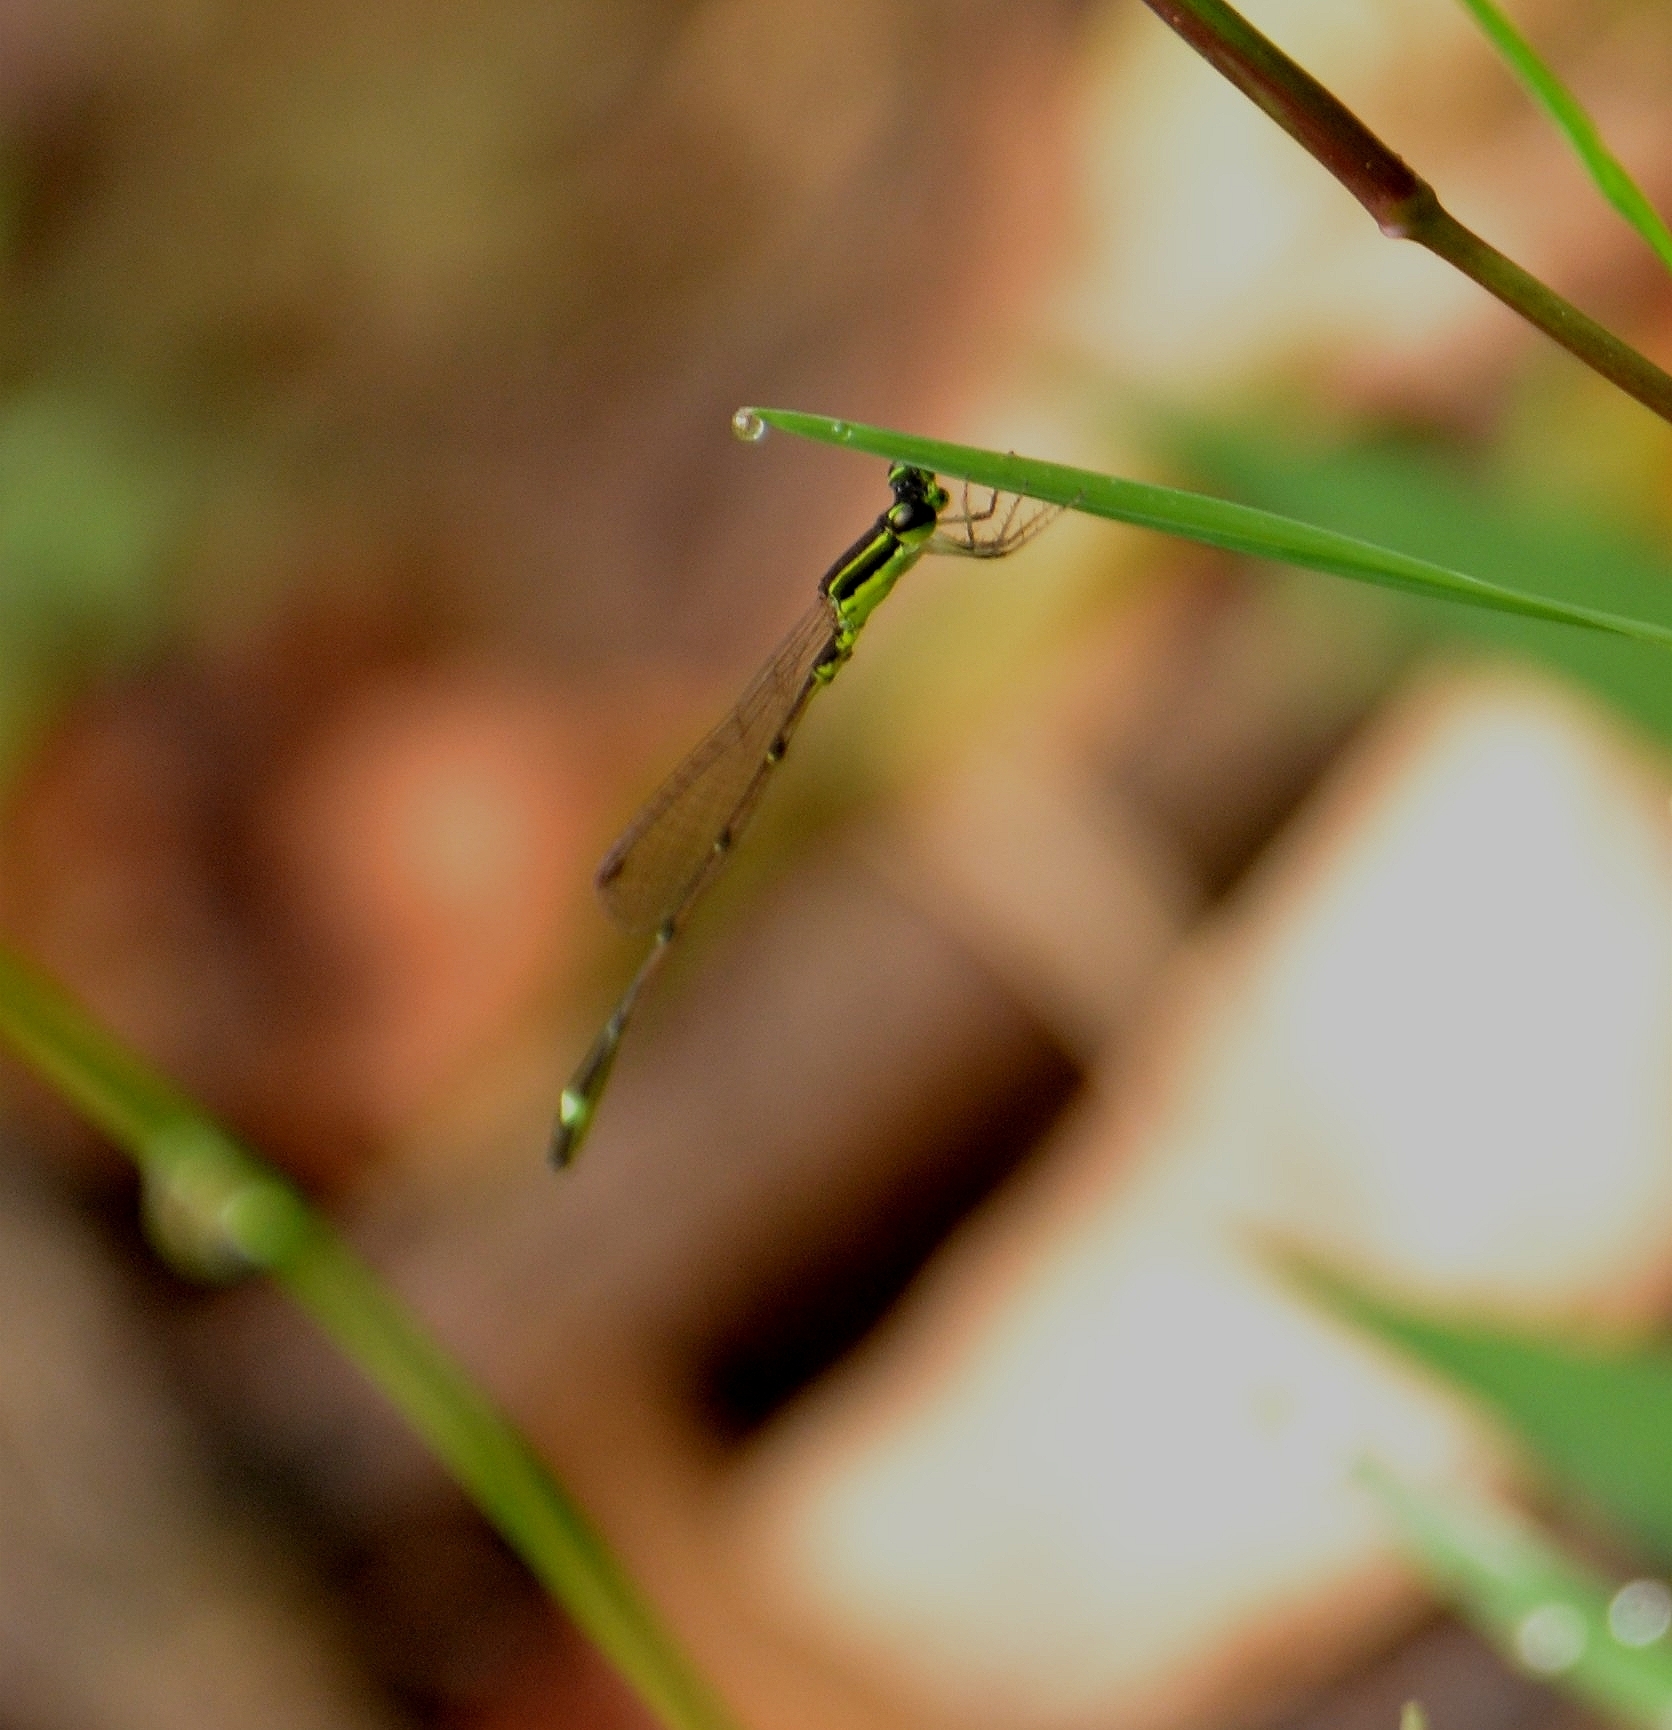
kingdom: Animalia
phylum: Arthropoda
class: Insecta
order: Odonata
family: Coenagrionidae
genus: Mortonagrion
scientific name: Mortonagrion varralli
